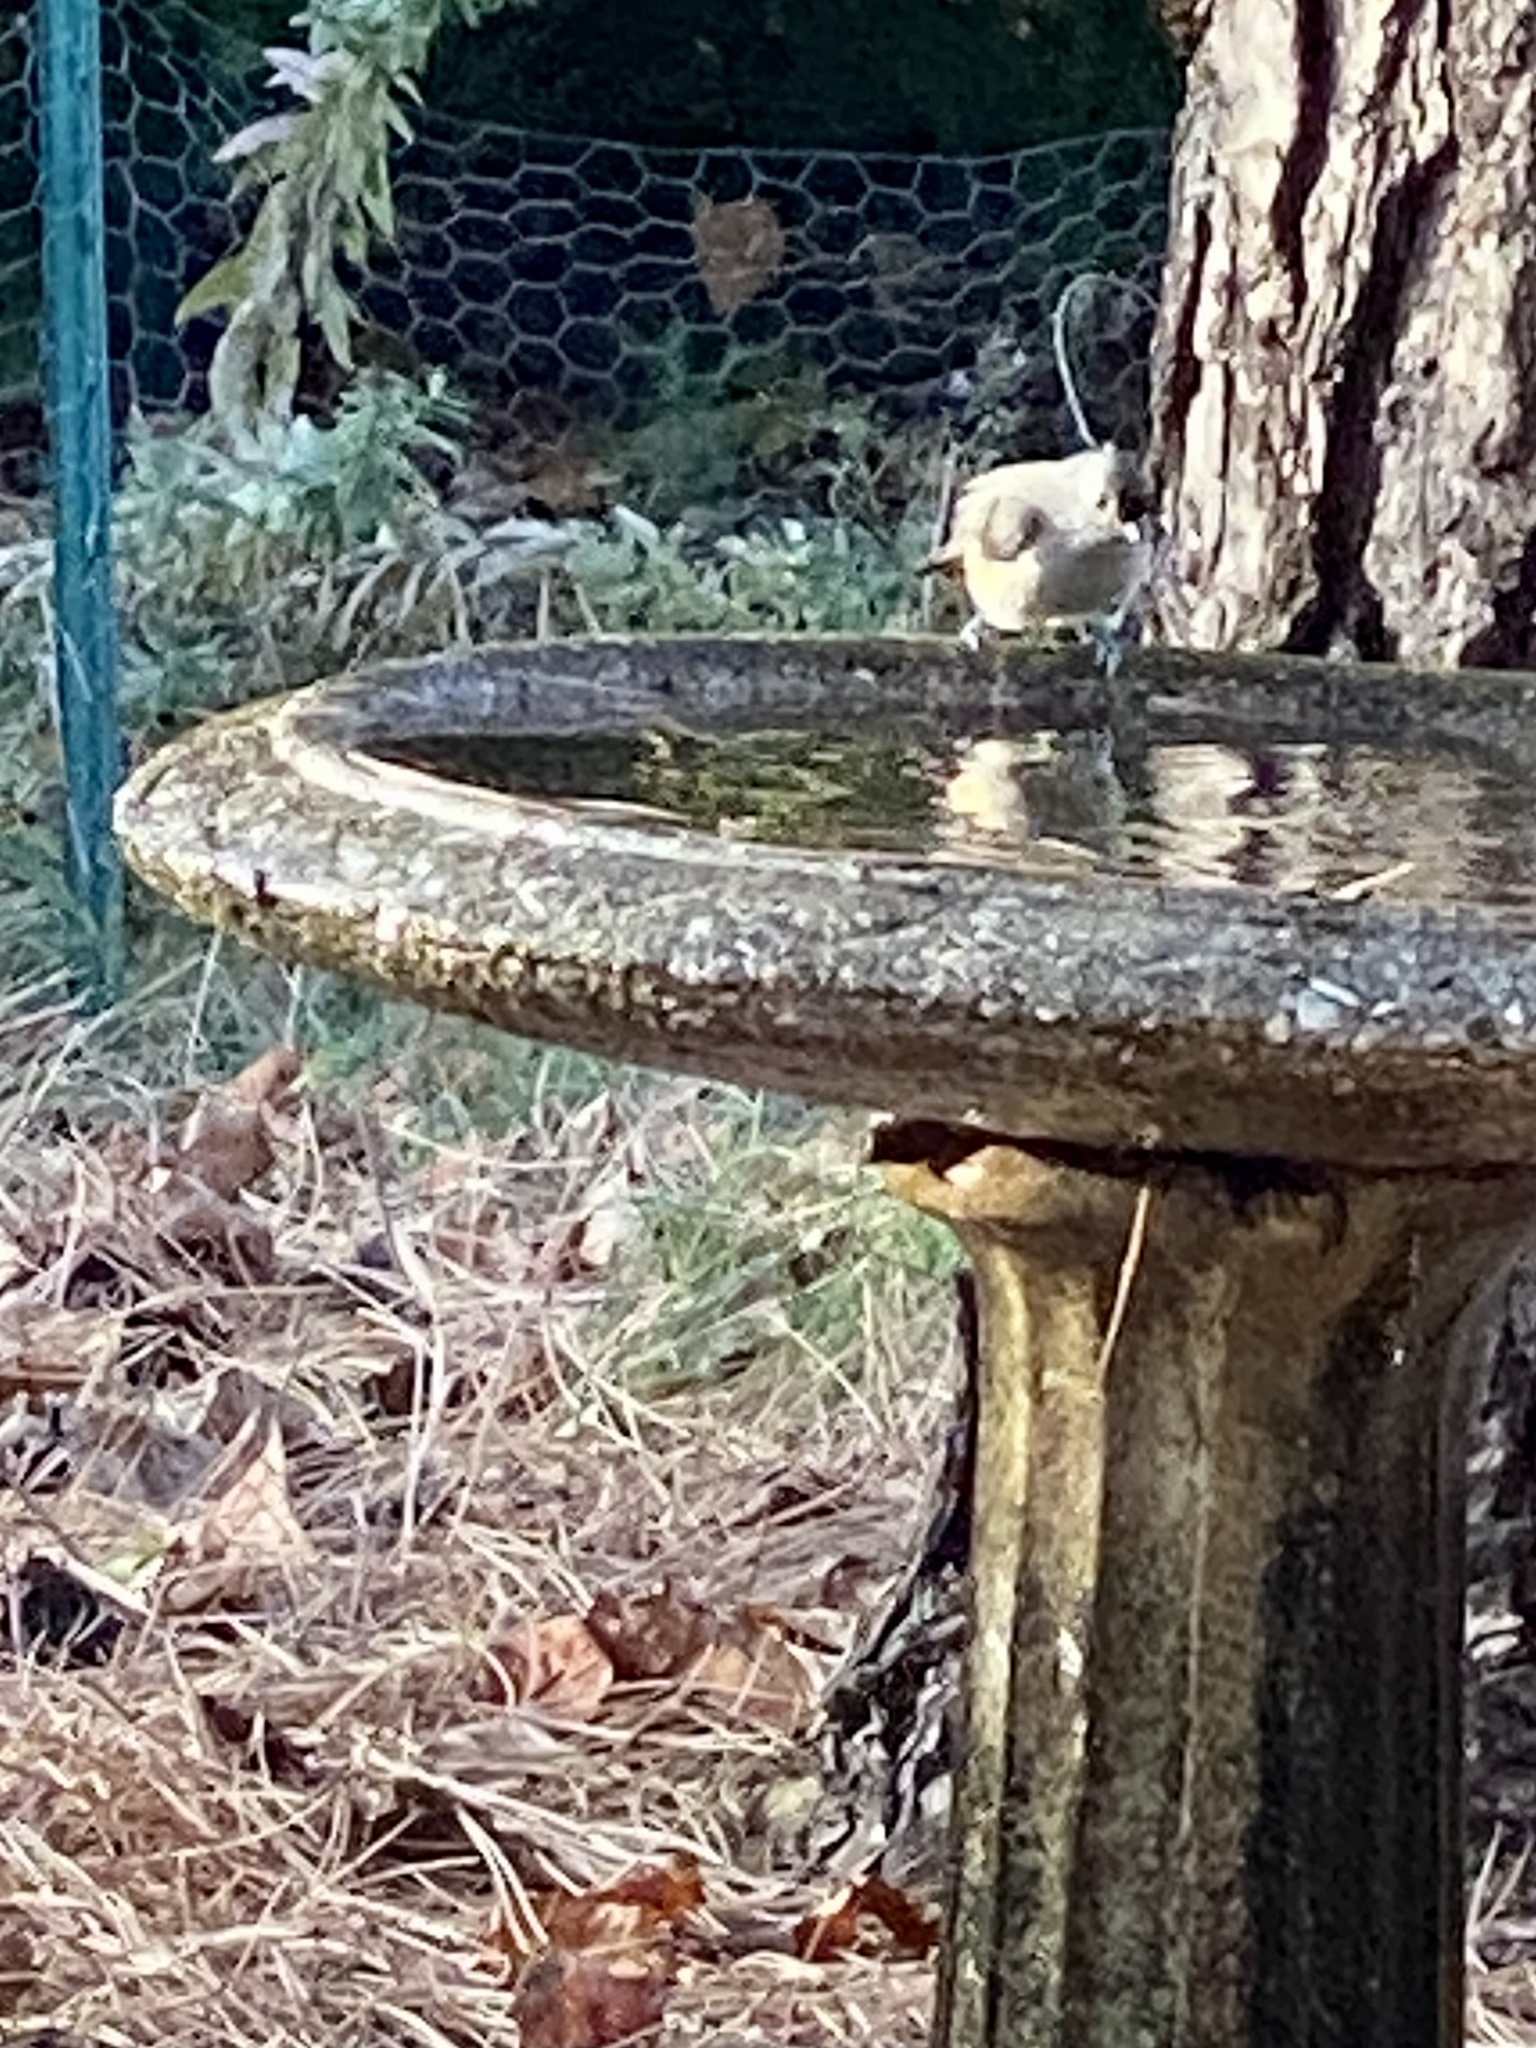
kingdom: Animalia
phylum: Chordata
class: Aves
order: Passeriformes
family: Paridae
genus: Baeolophus
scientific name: Baeolophus bicolor
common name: Tufted titmouse
